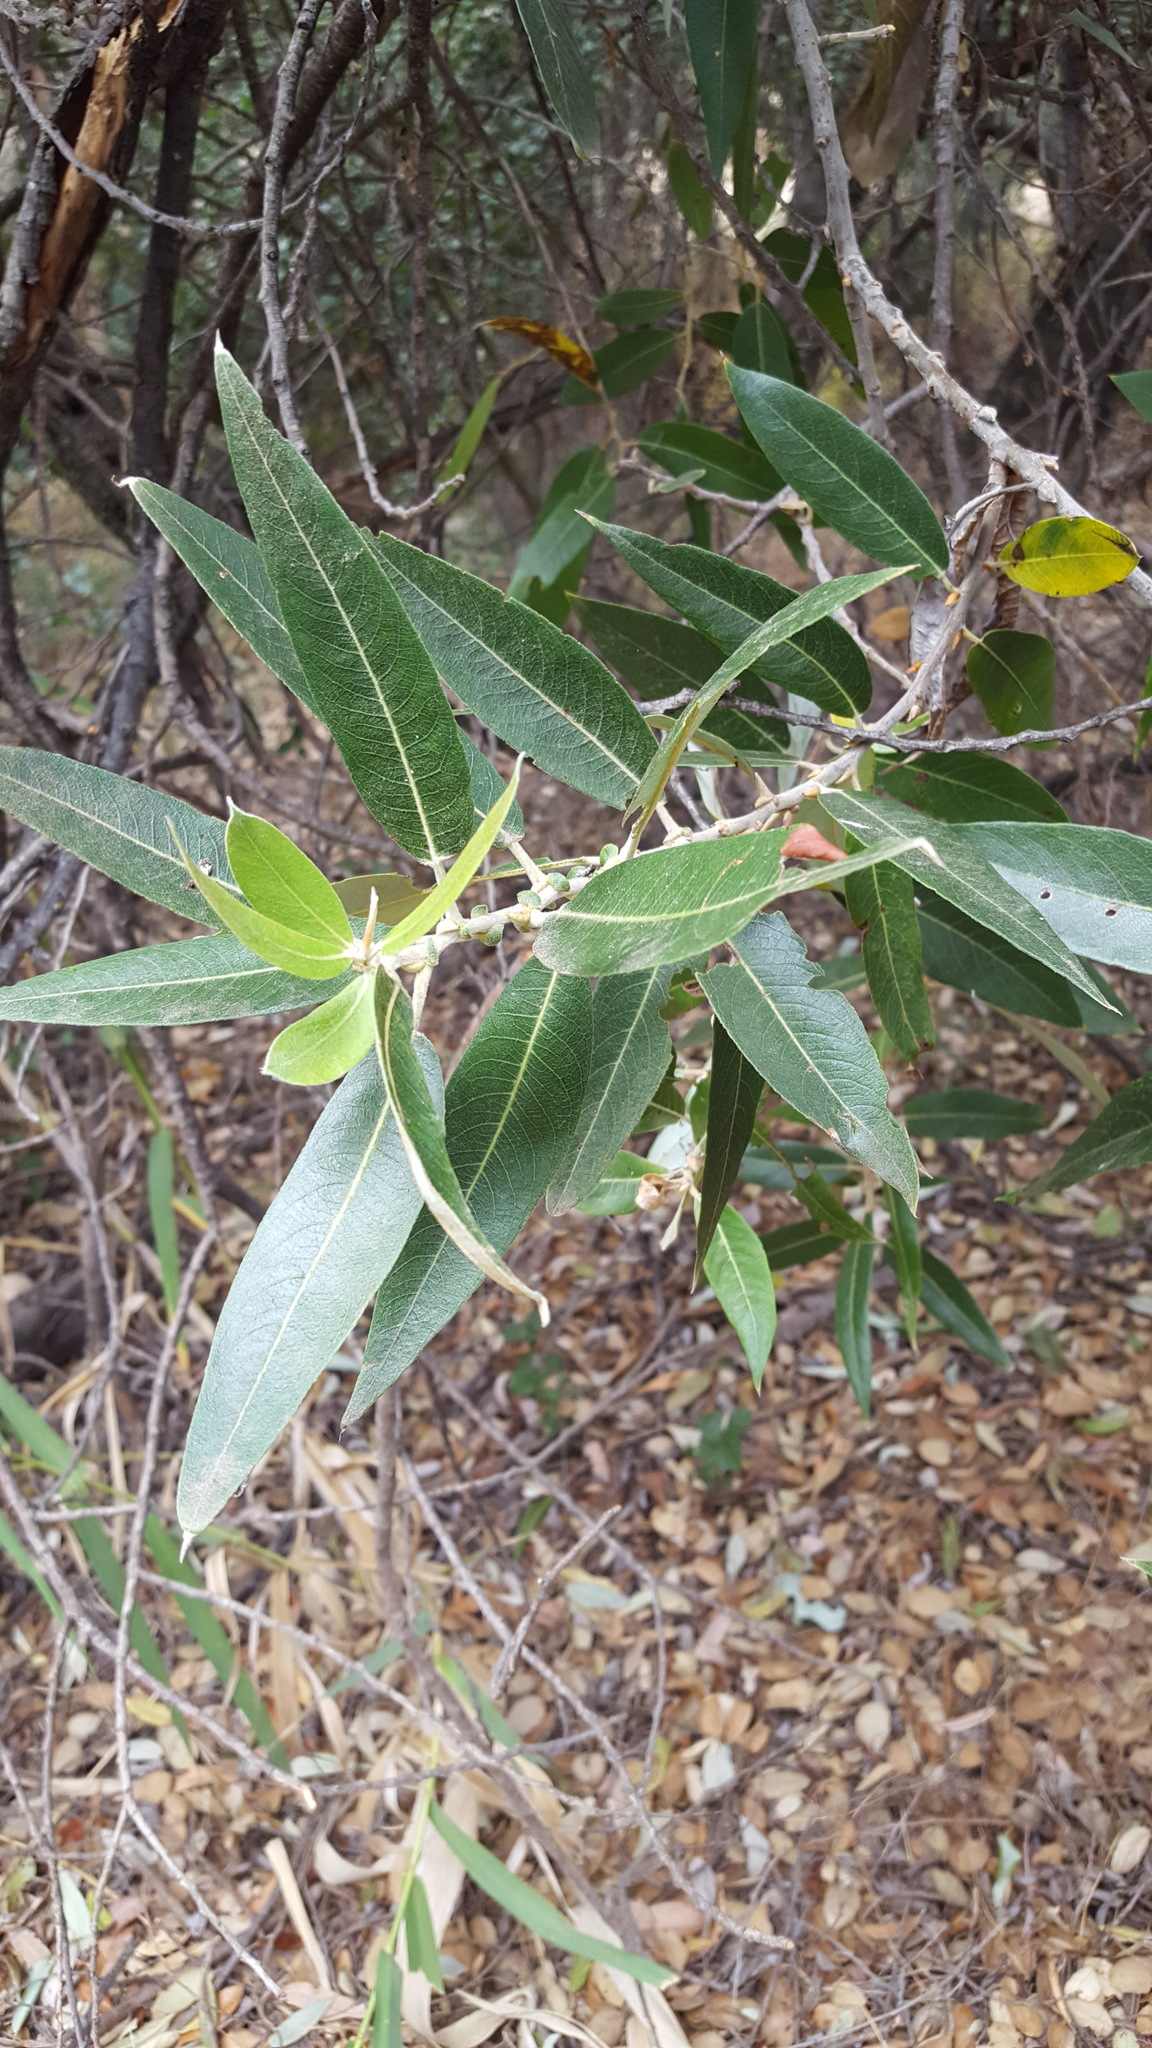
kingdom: Plantae
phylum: Tracheophyta
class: Magnoliopsida
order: Malpighiales
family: Salicaceae
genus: Salix
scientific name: Salix laevigata
